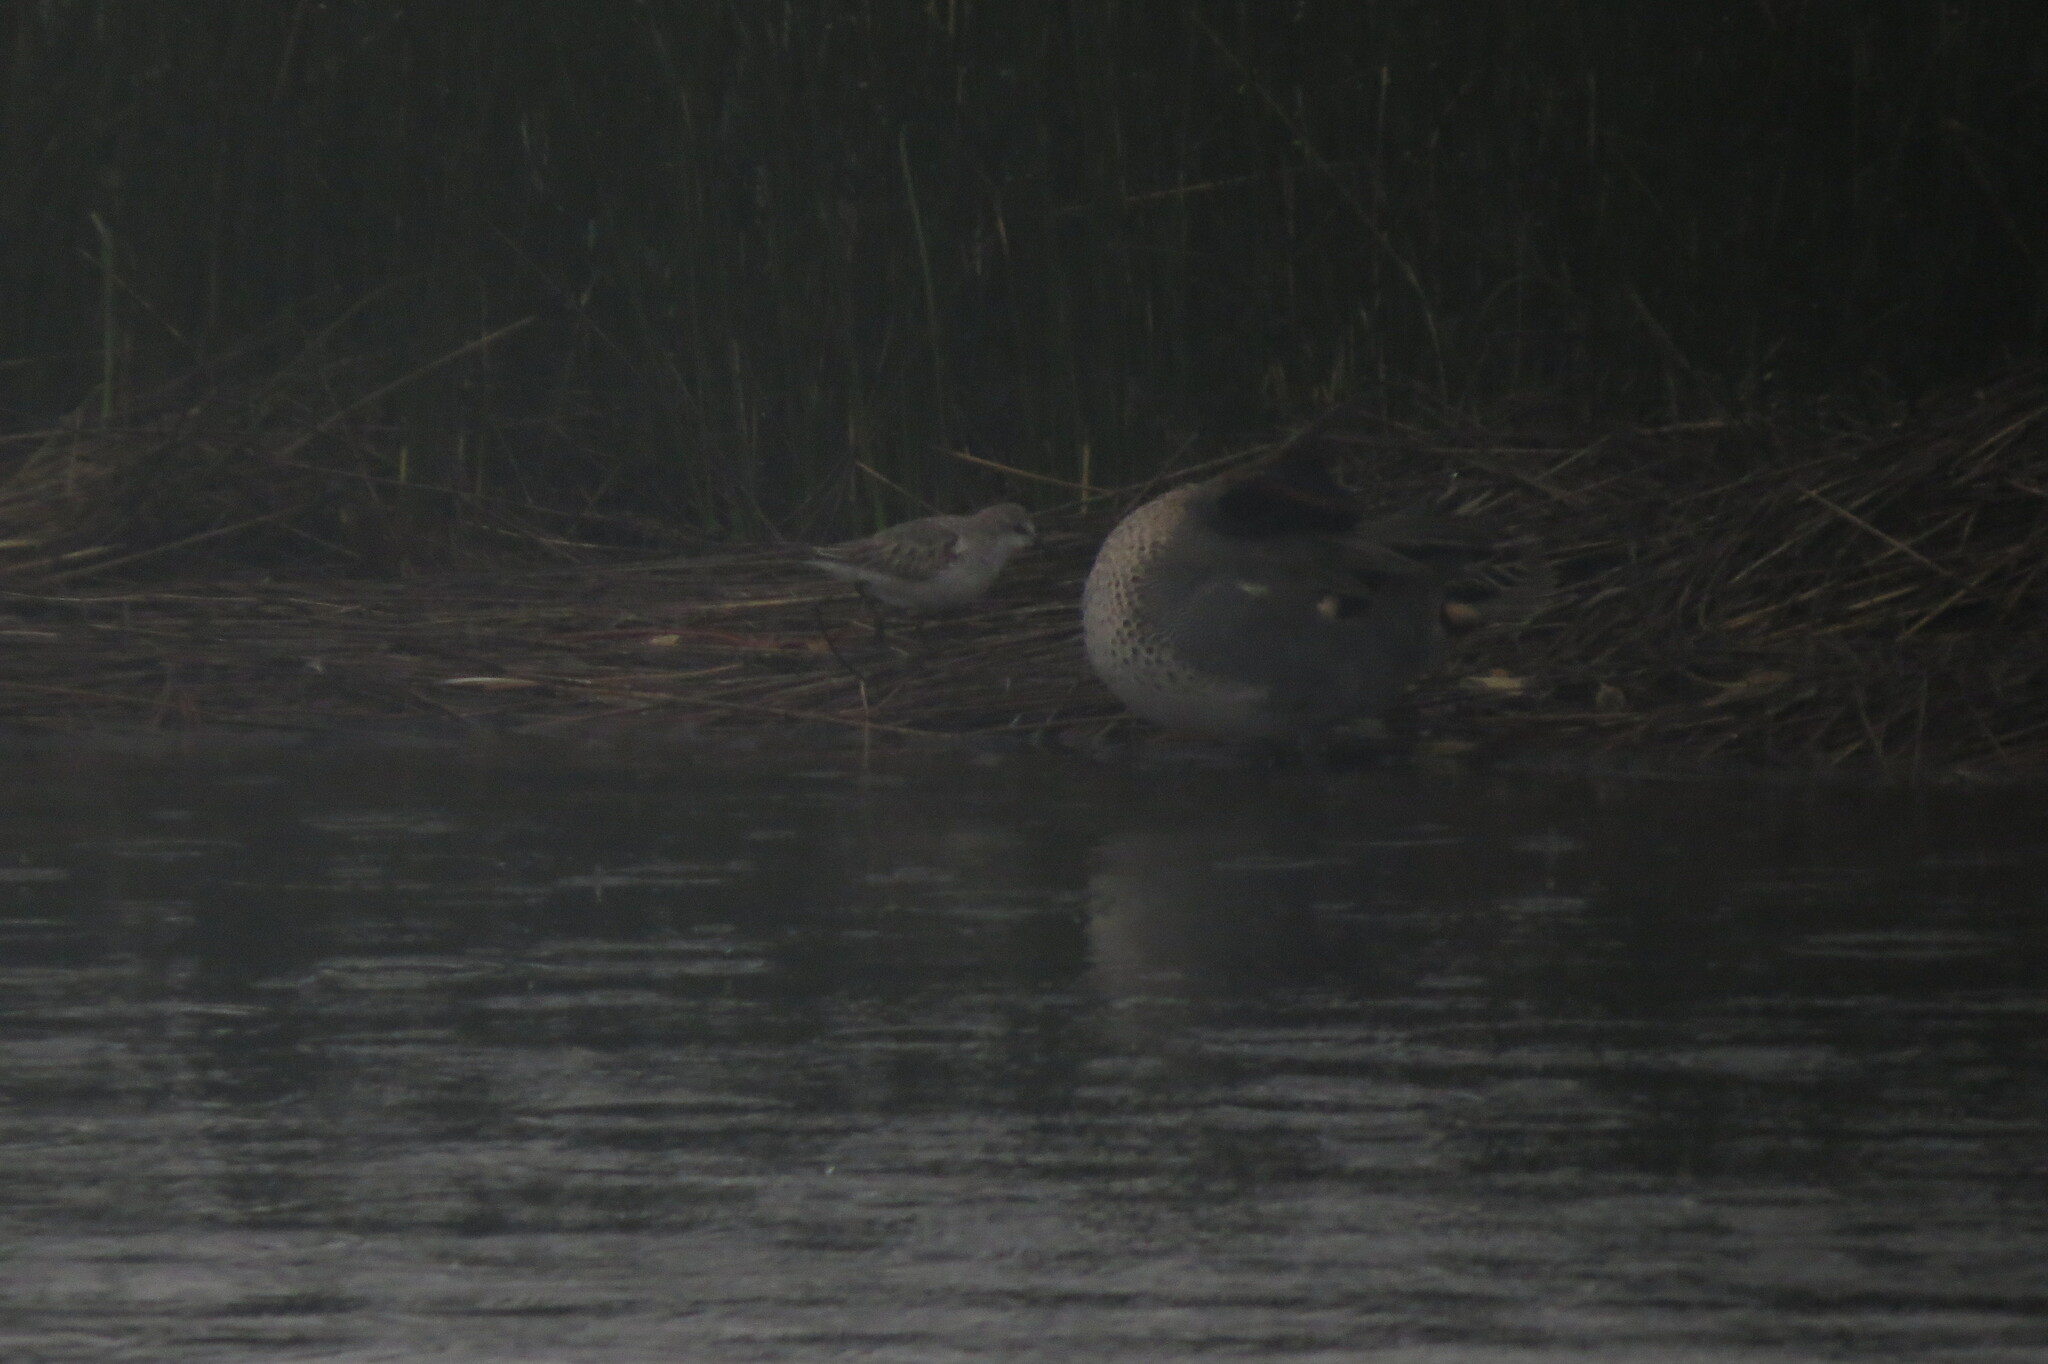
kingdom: Animalia
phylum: Chordata
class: Aves
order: Charadriiformes
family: Scolopacidae
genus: Calidris
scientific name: Calidris minuta
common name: Little stint
